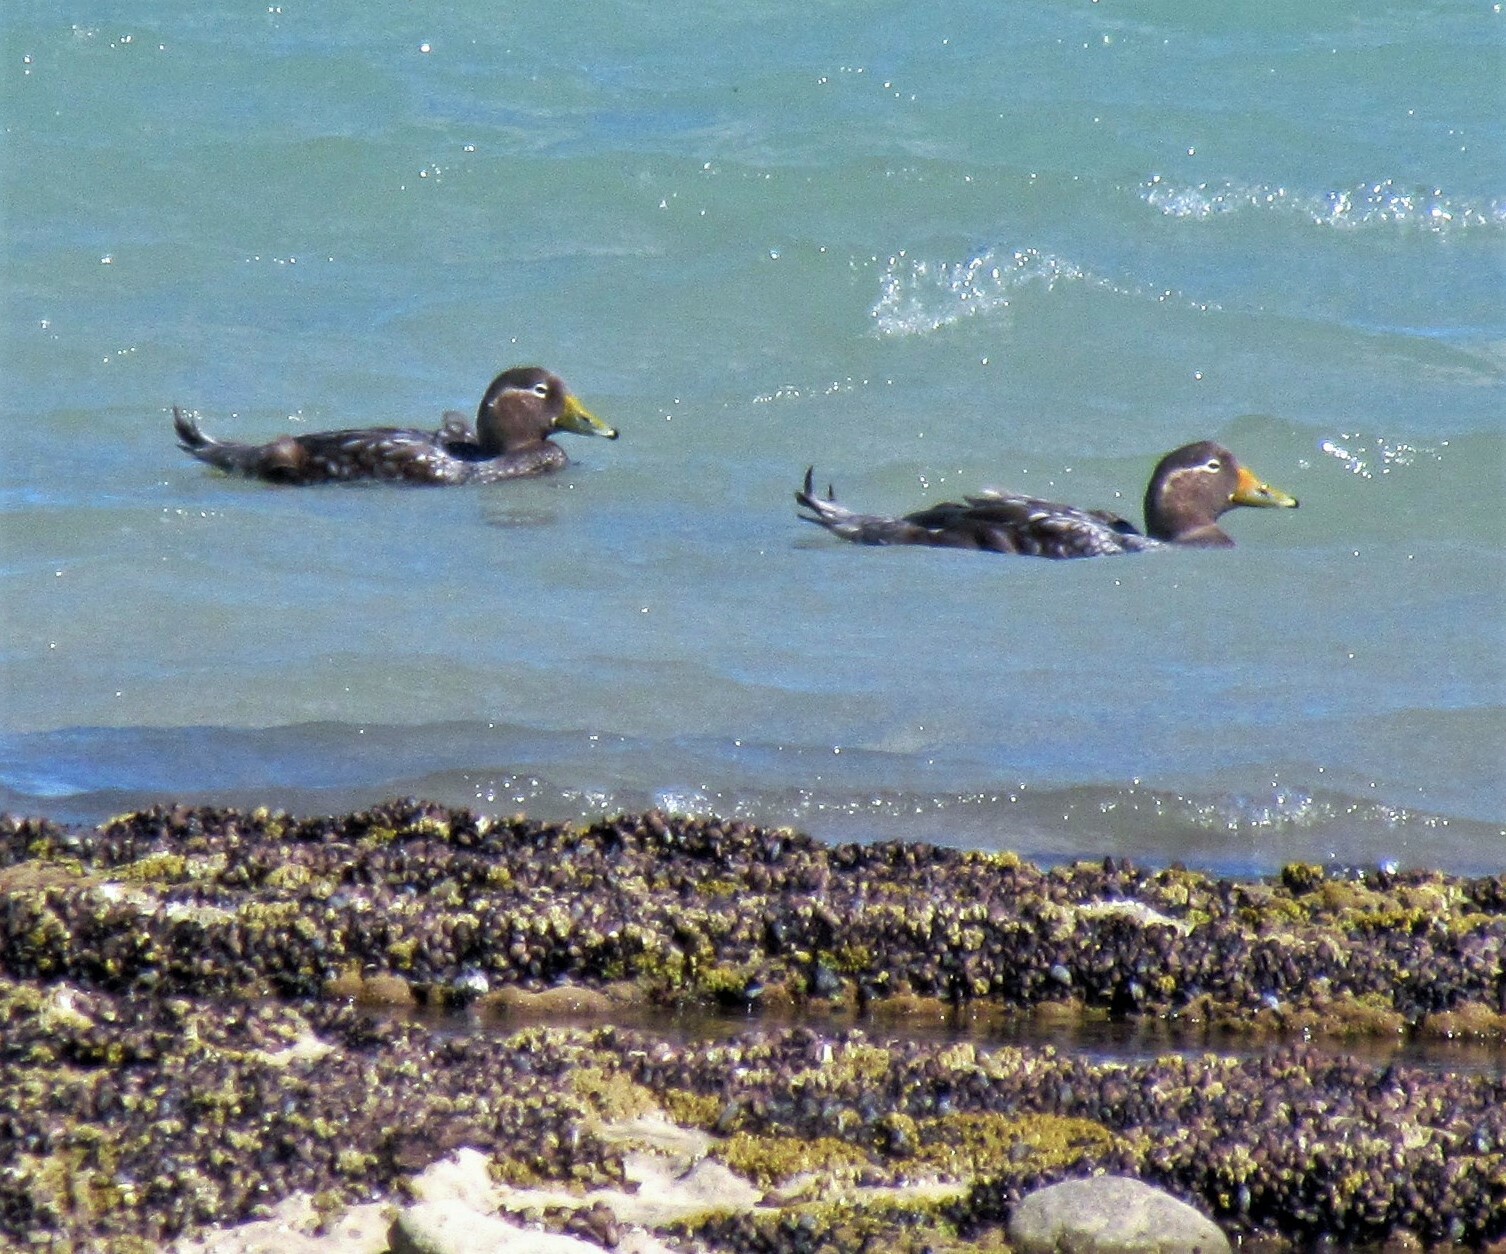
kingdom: Animalia
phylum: Chordata
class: Aves
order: Anseriformes
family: Anatidae
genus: Tachyeres
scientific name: Tachyeres patachonicus
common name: Flying steamer duck
